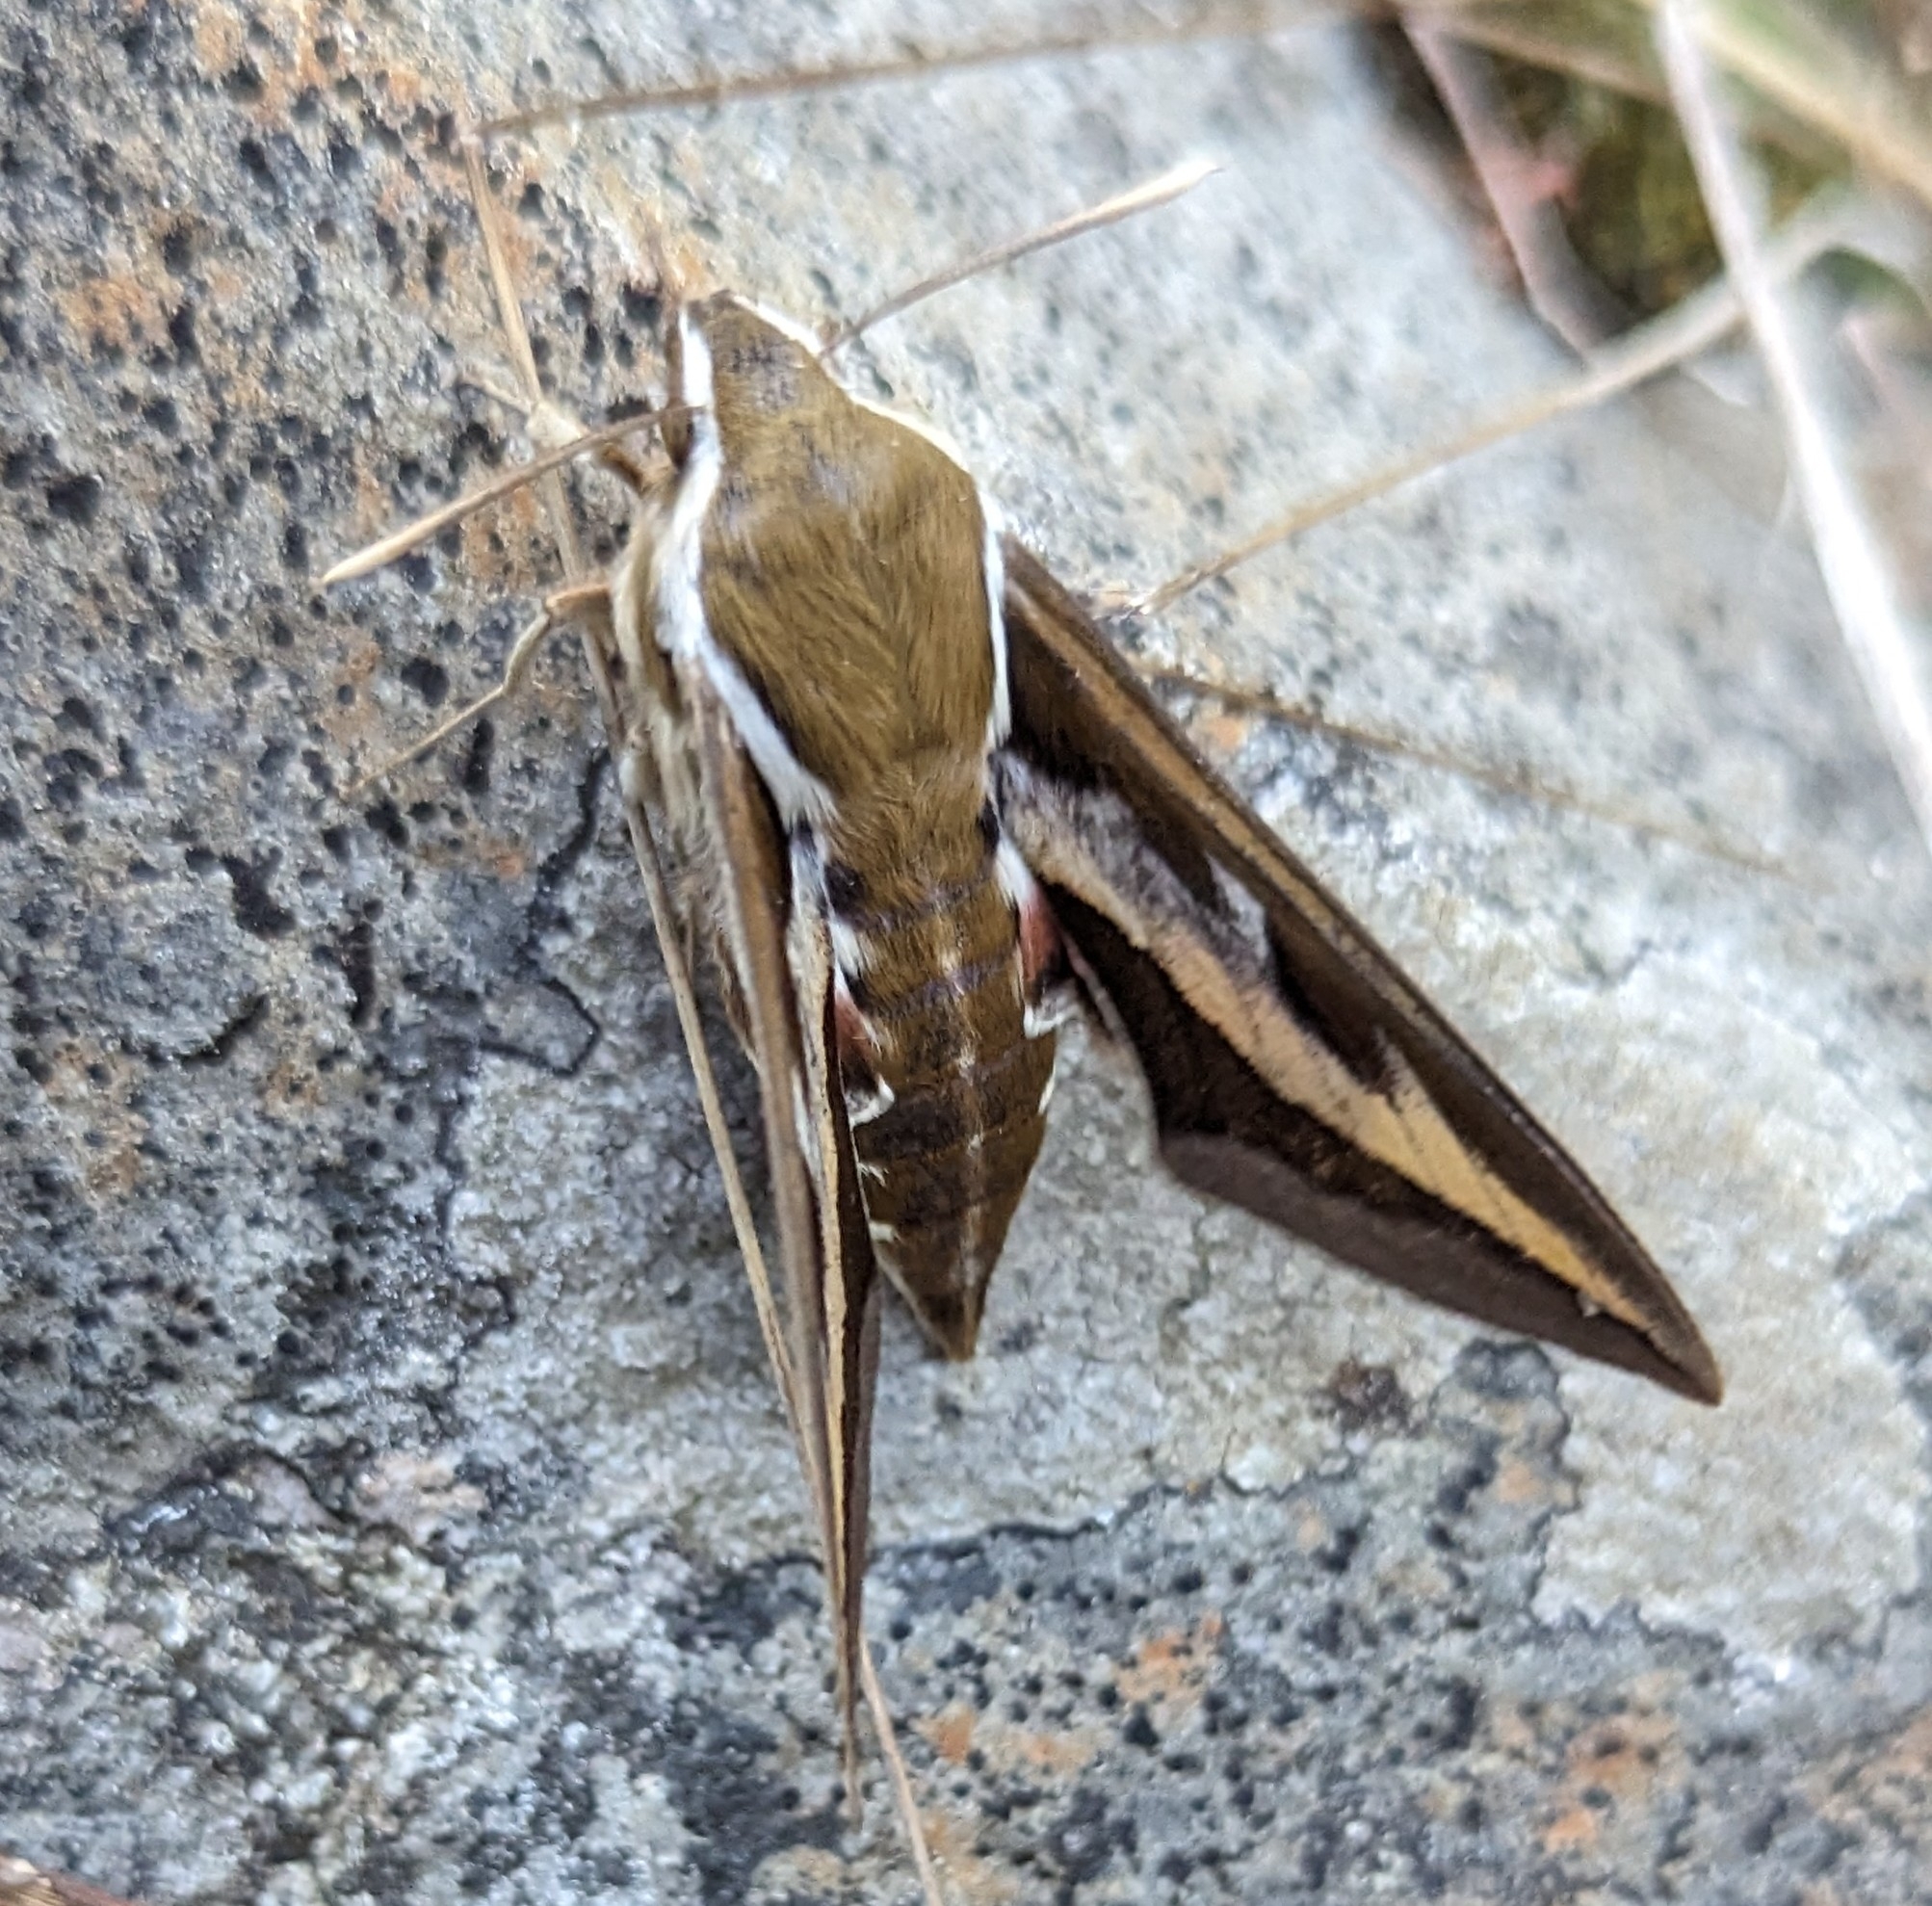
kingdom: Animalia
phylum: Arthropoda
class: Insecta
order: Lepidoptera
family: Sphingidae
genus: Hyles
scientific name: Hyles gallii
